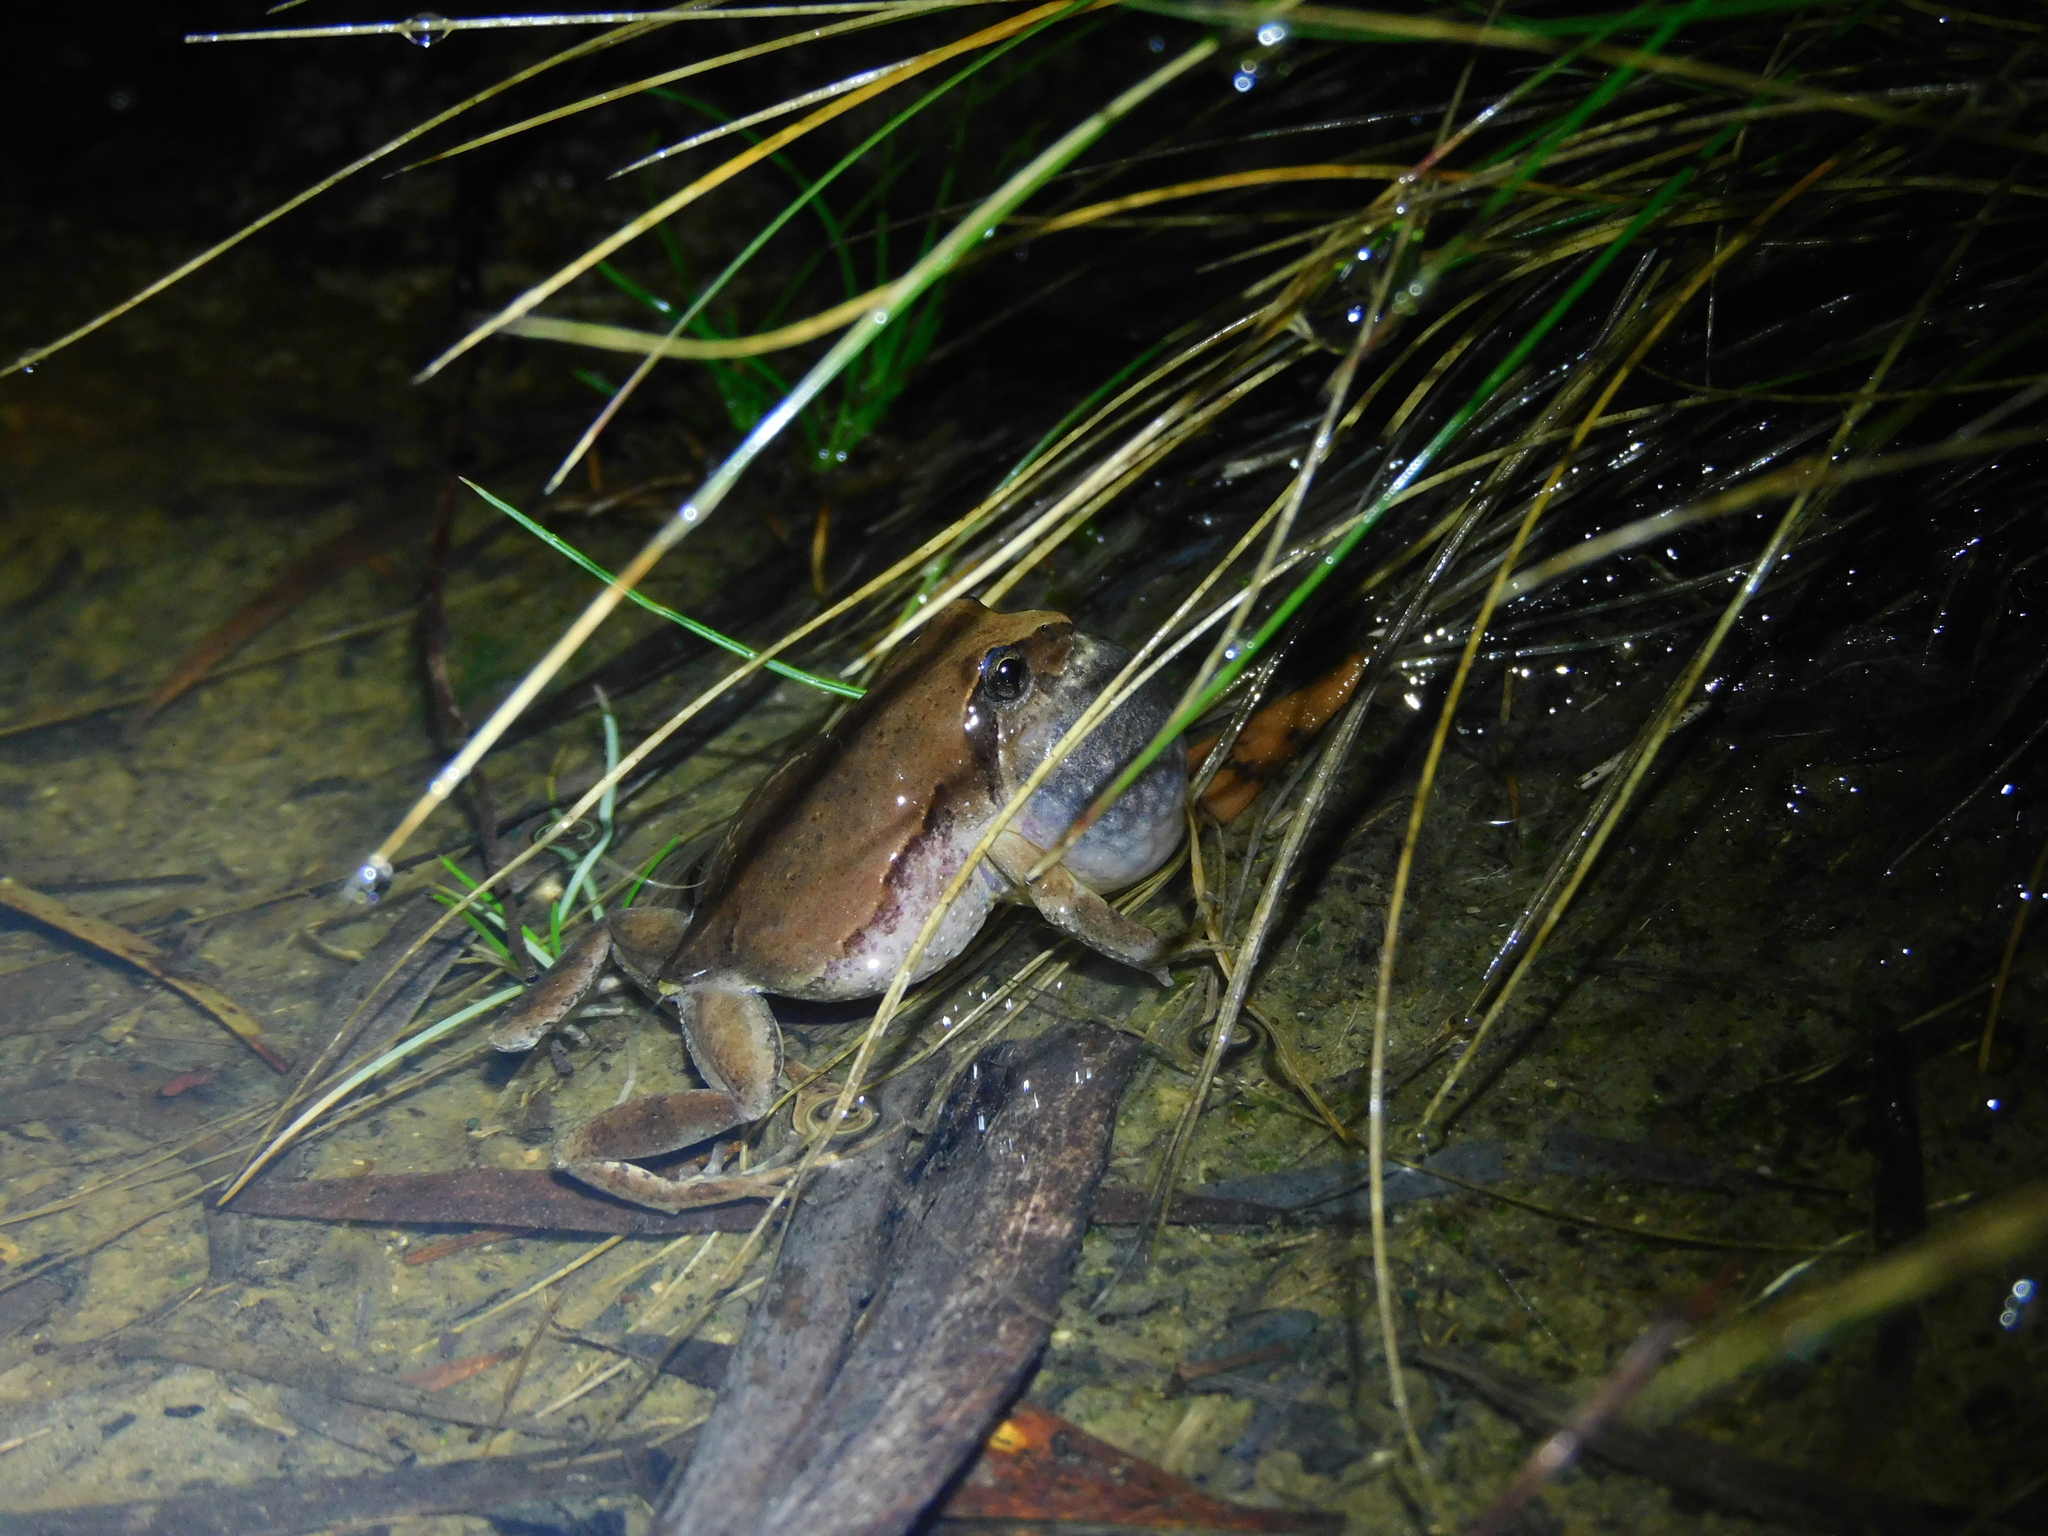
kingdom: Animalia
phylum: Chordata
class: Amphibia
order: Anura
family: Myobatrachidae
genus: Crinia
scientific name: Crinia signifera
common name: Brown froglet
